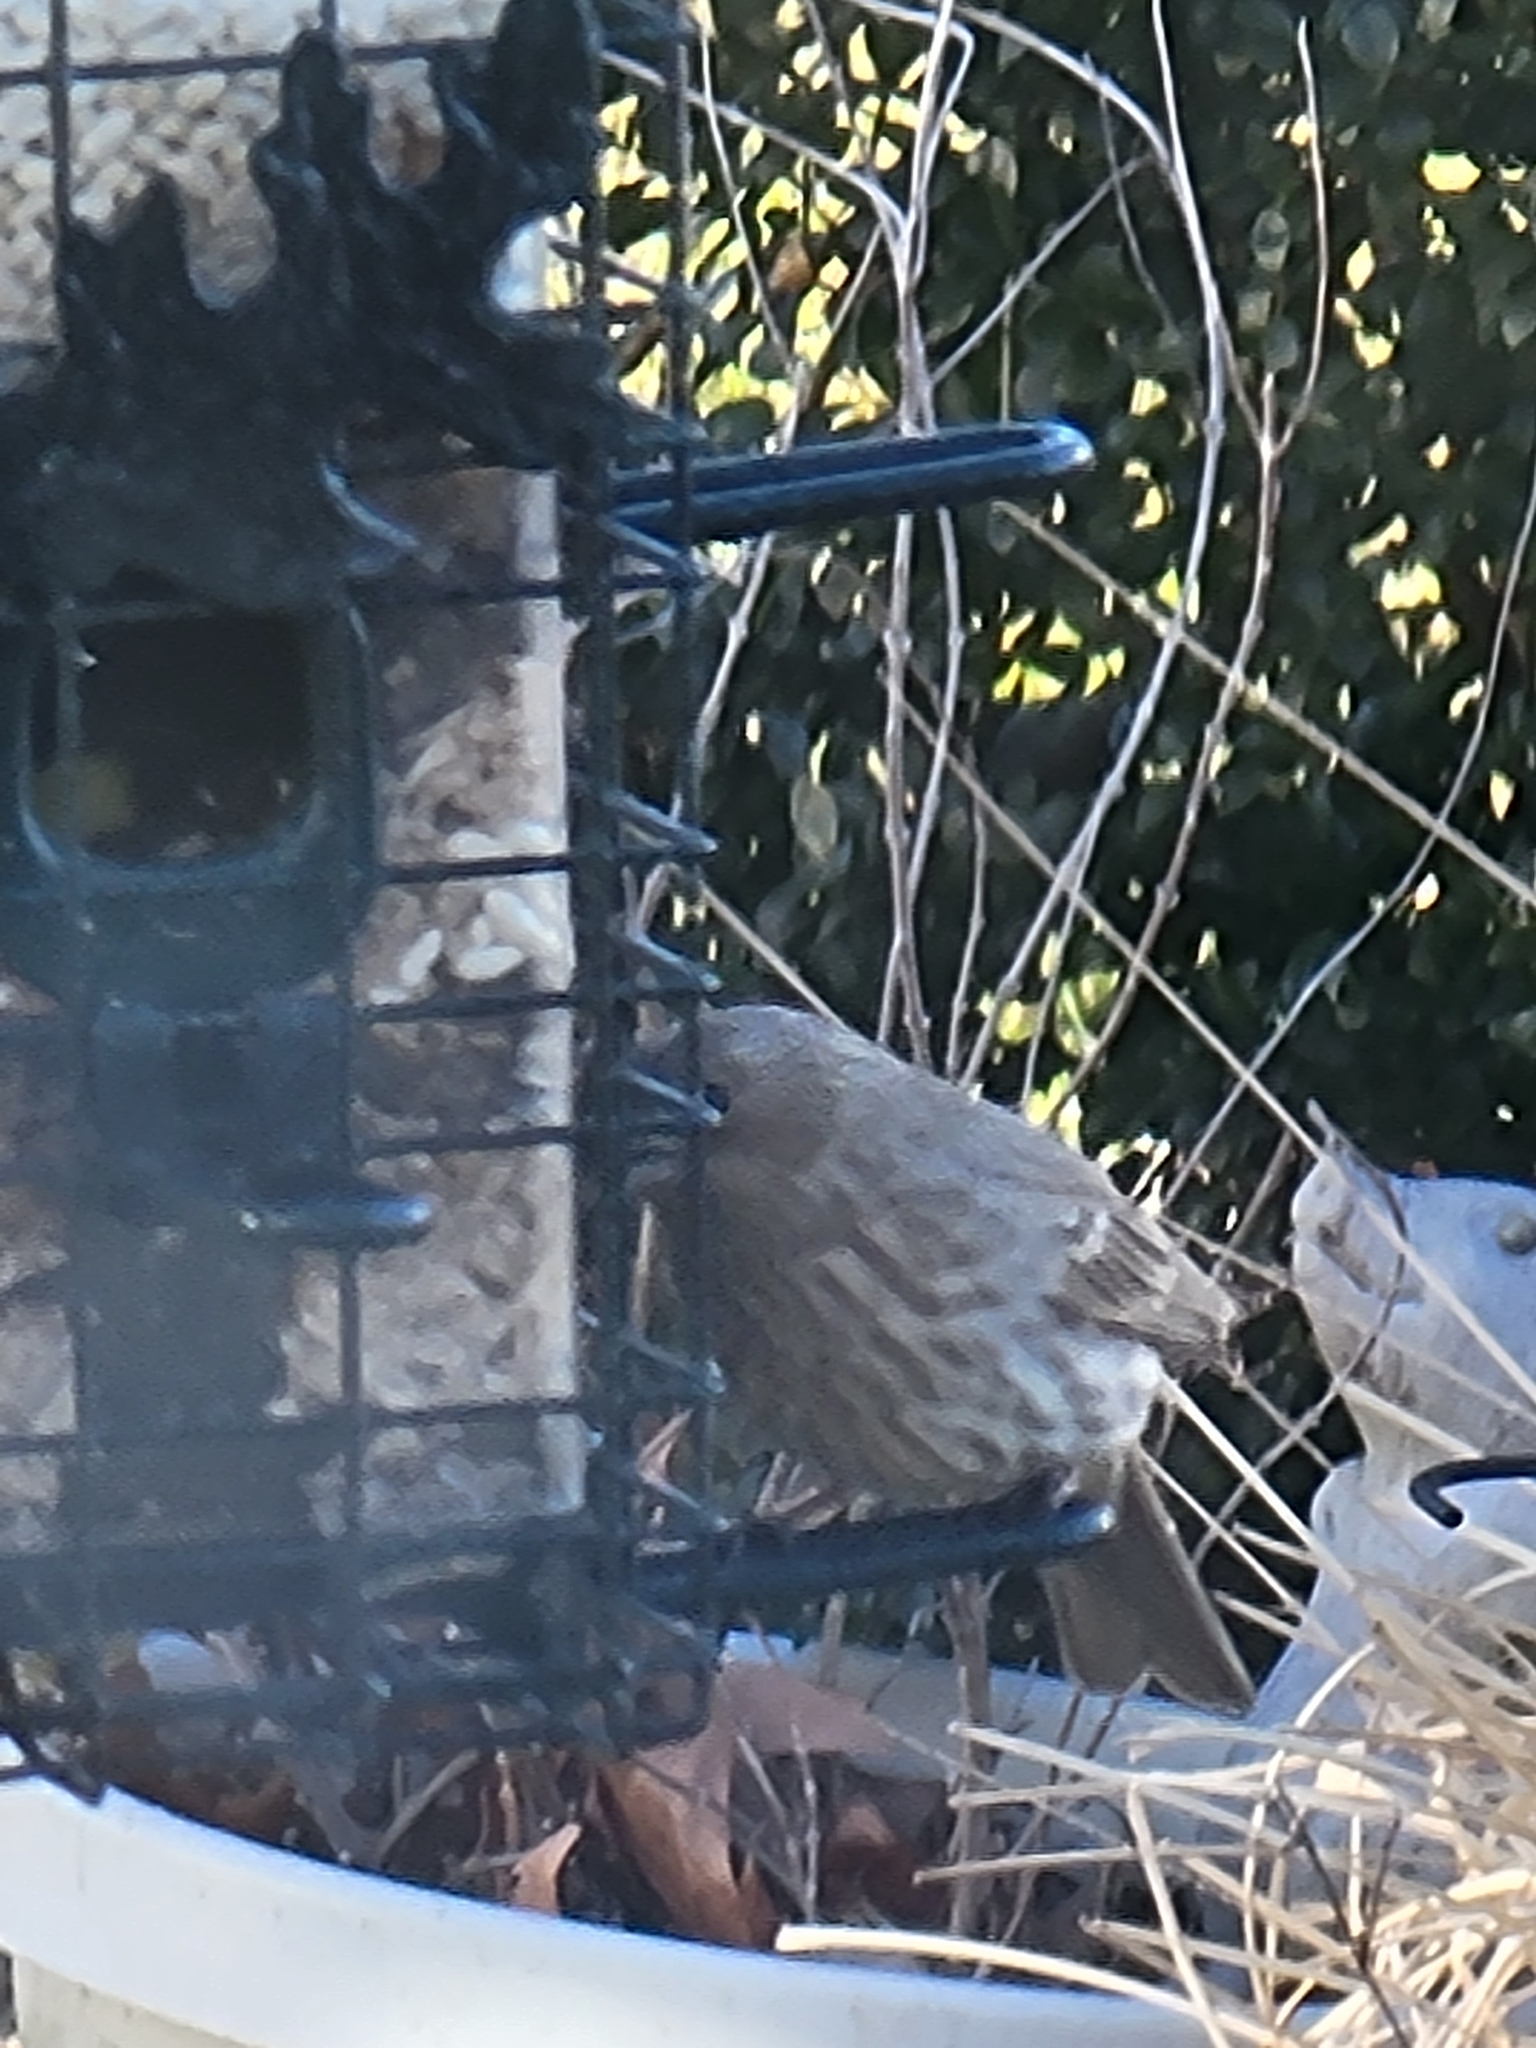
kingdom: Animalia
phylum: Chordata
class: Aves
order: Passeriformes
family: Fringillidae
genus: Haemorhous
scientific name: Haemorhous mexicanus
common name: House finch
